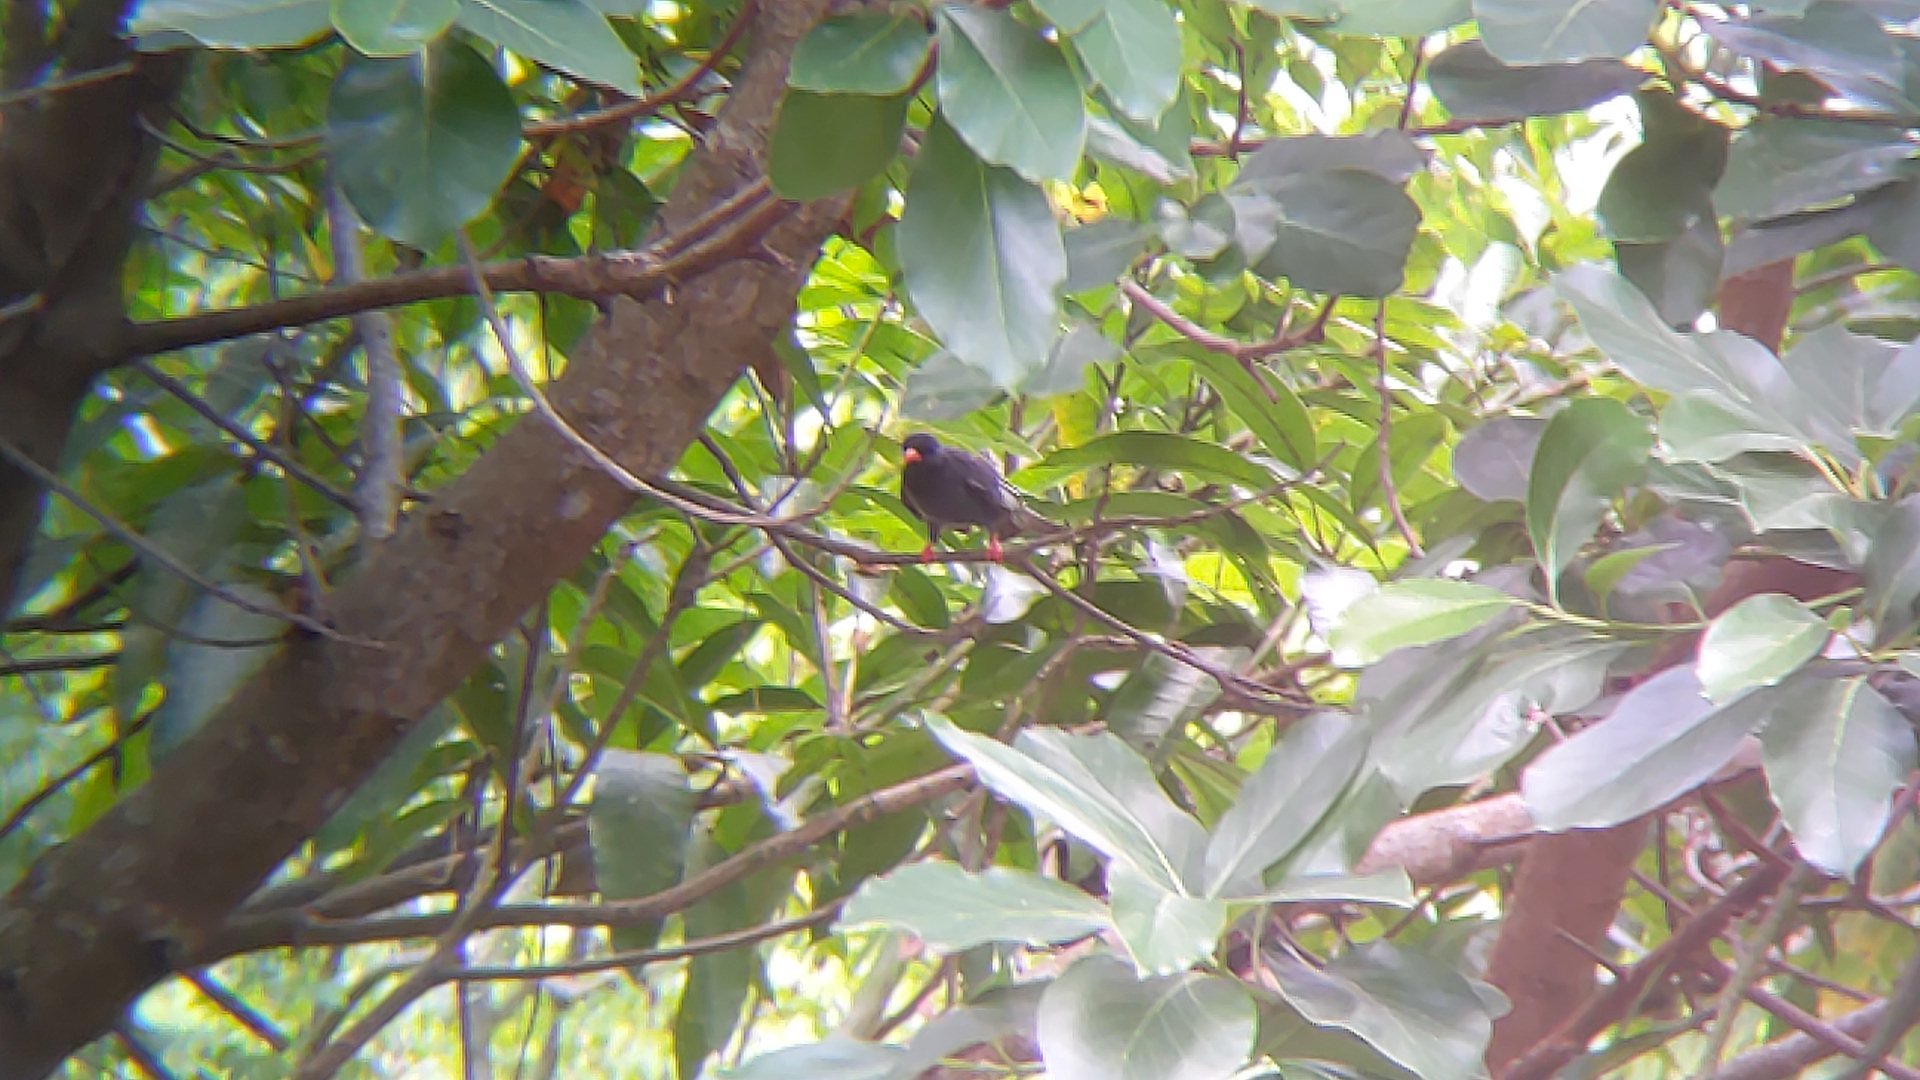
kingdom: Animalia
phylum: Chordata
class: Aves
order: Passeriformes
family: Pycnonotidae
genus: Hypsipetes
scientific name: Hypsipetes leucocephalus
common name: Black bulbul
